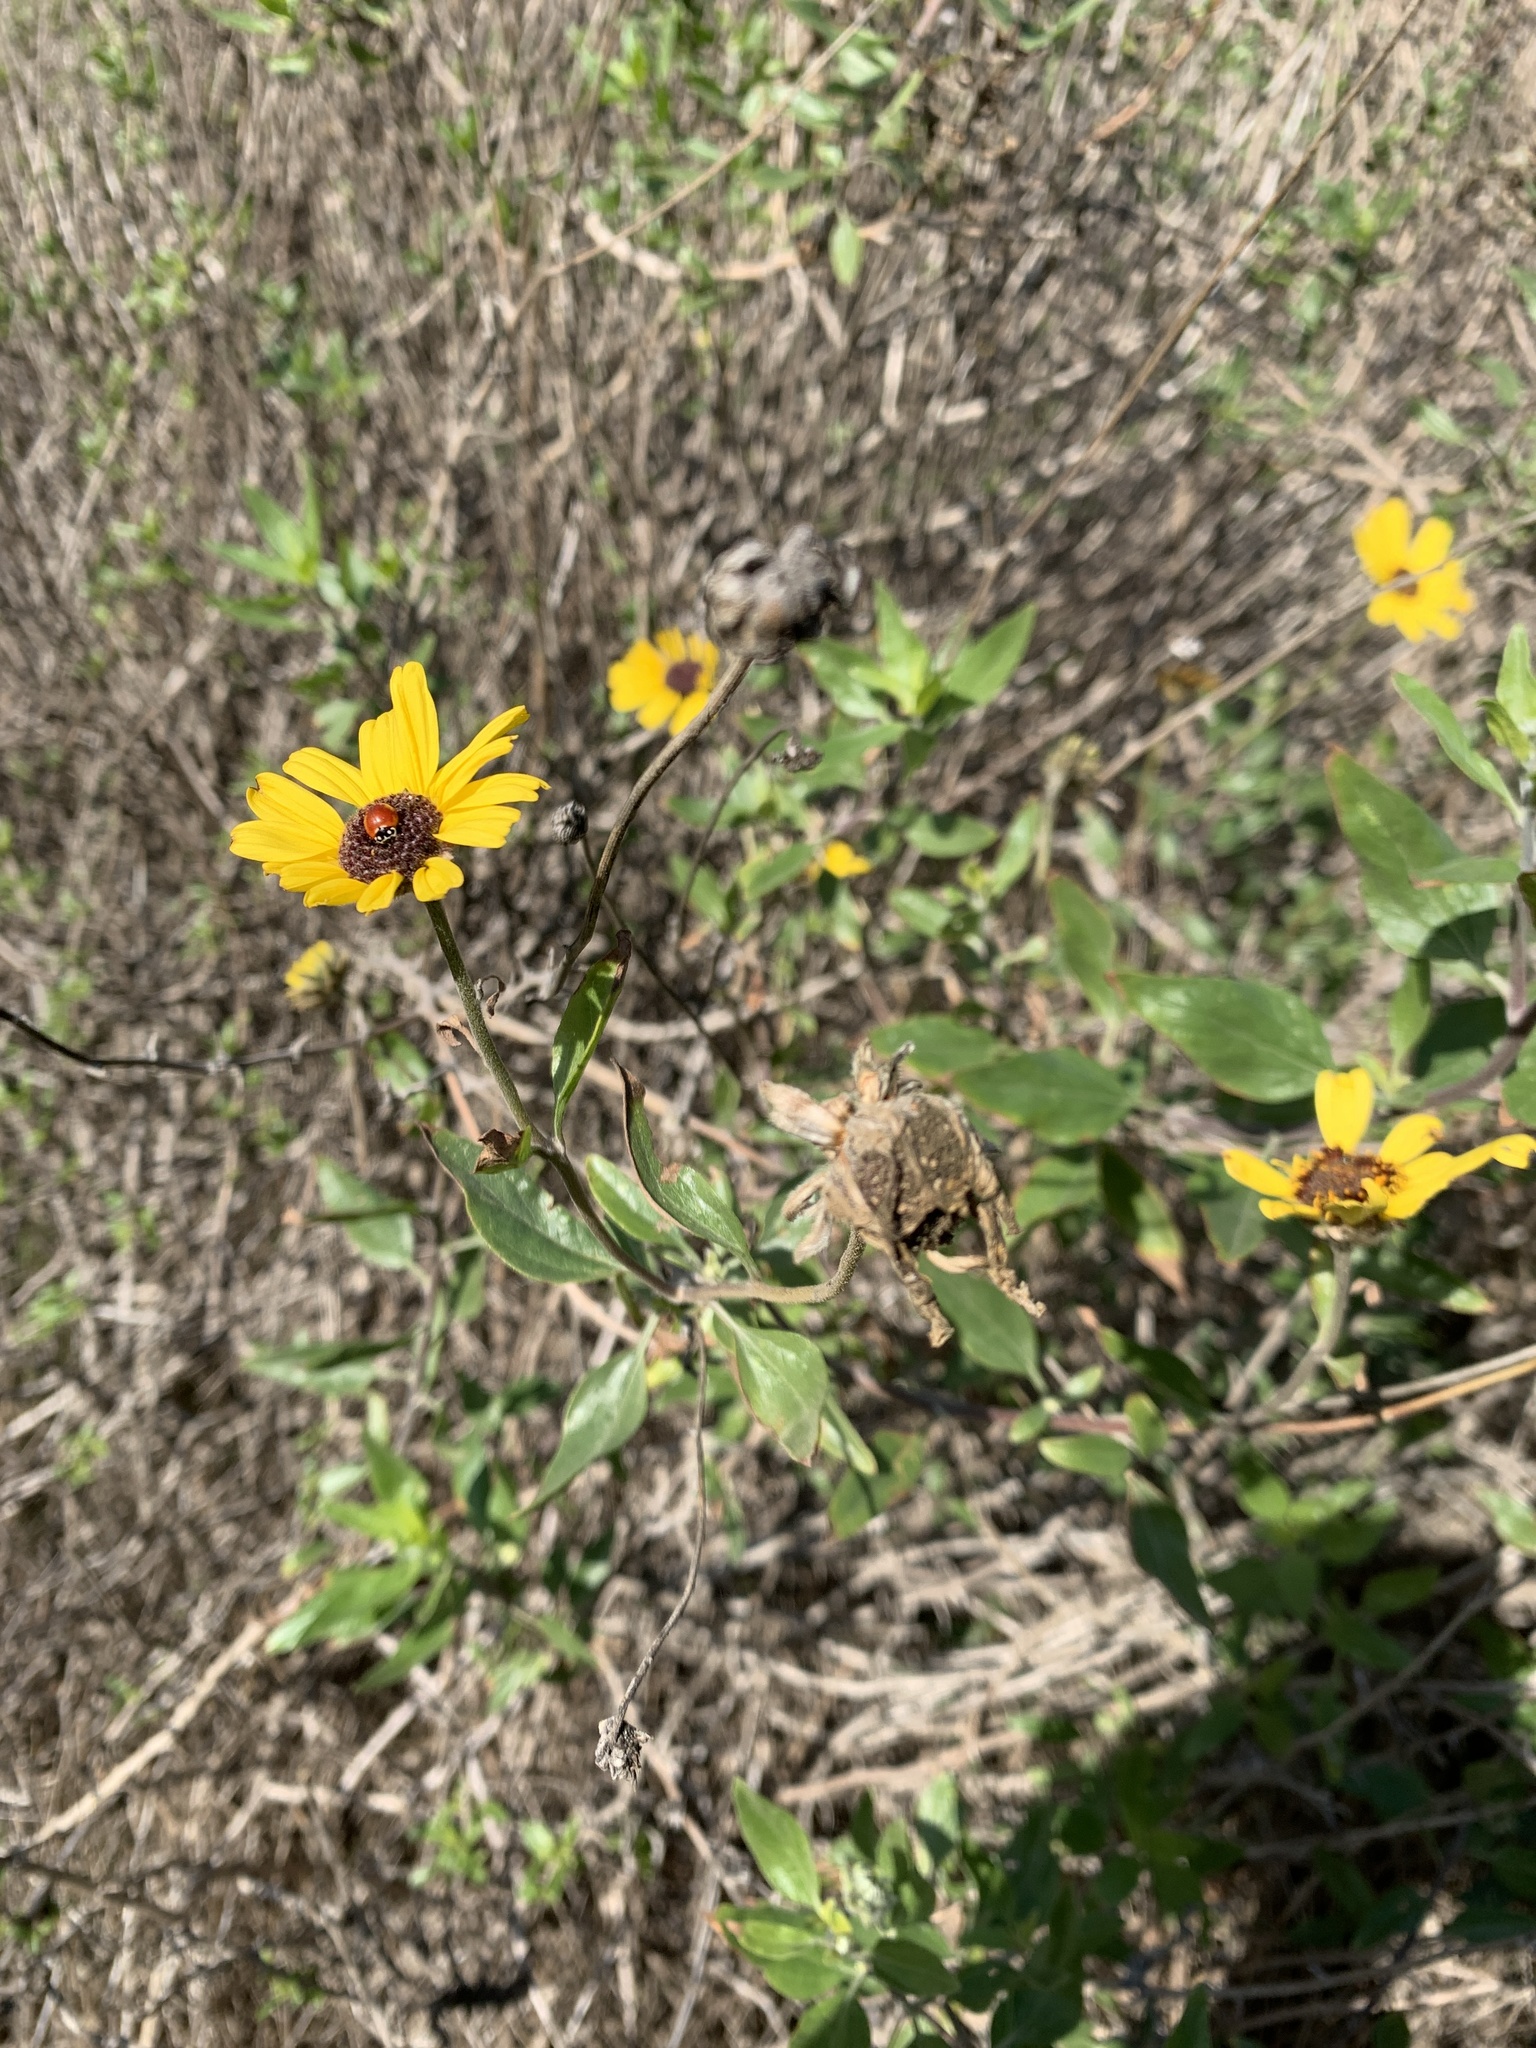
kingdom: Plantae
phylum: Tracheophyta
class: Magnoliopsida
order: Asterales
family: Asteraceae
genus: Encelia
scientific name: Encelia californica
